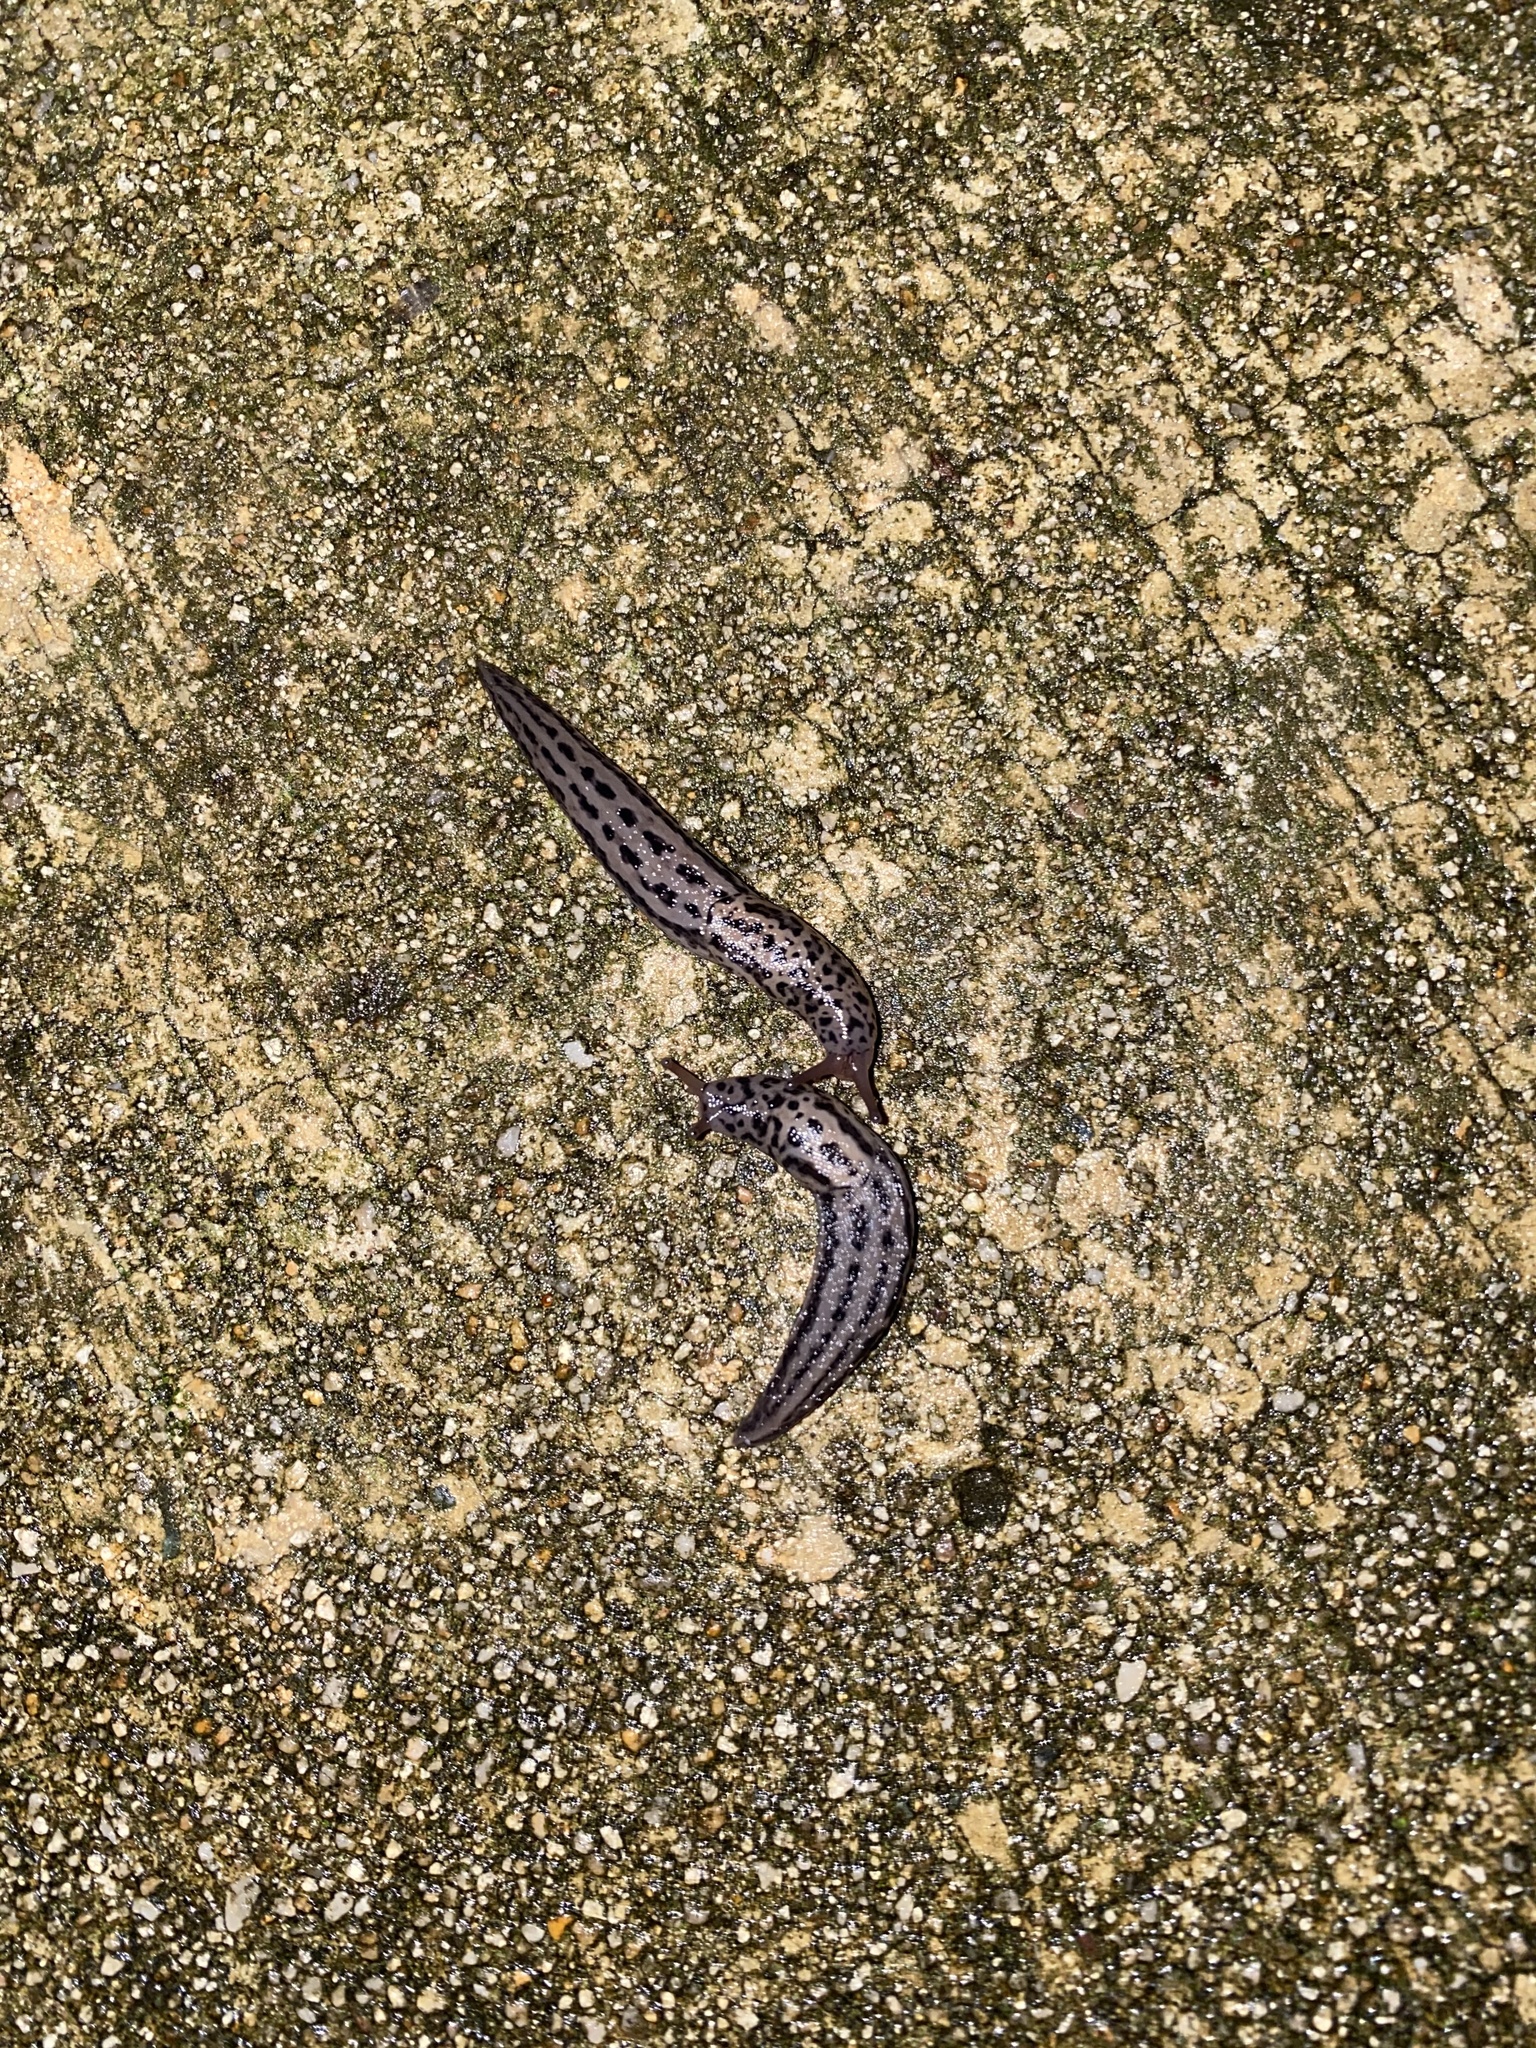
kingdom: Animalia
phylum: Mollusca
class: Gastropoda
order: Stylommatophora
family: Limacidae
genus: Limax
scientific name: Limax maximus
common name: Great grey slug
